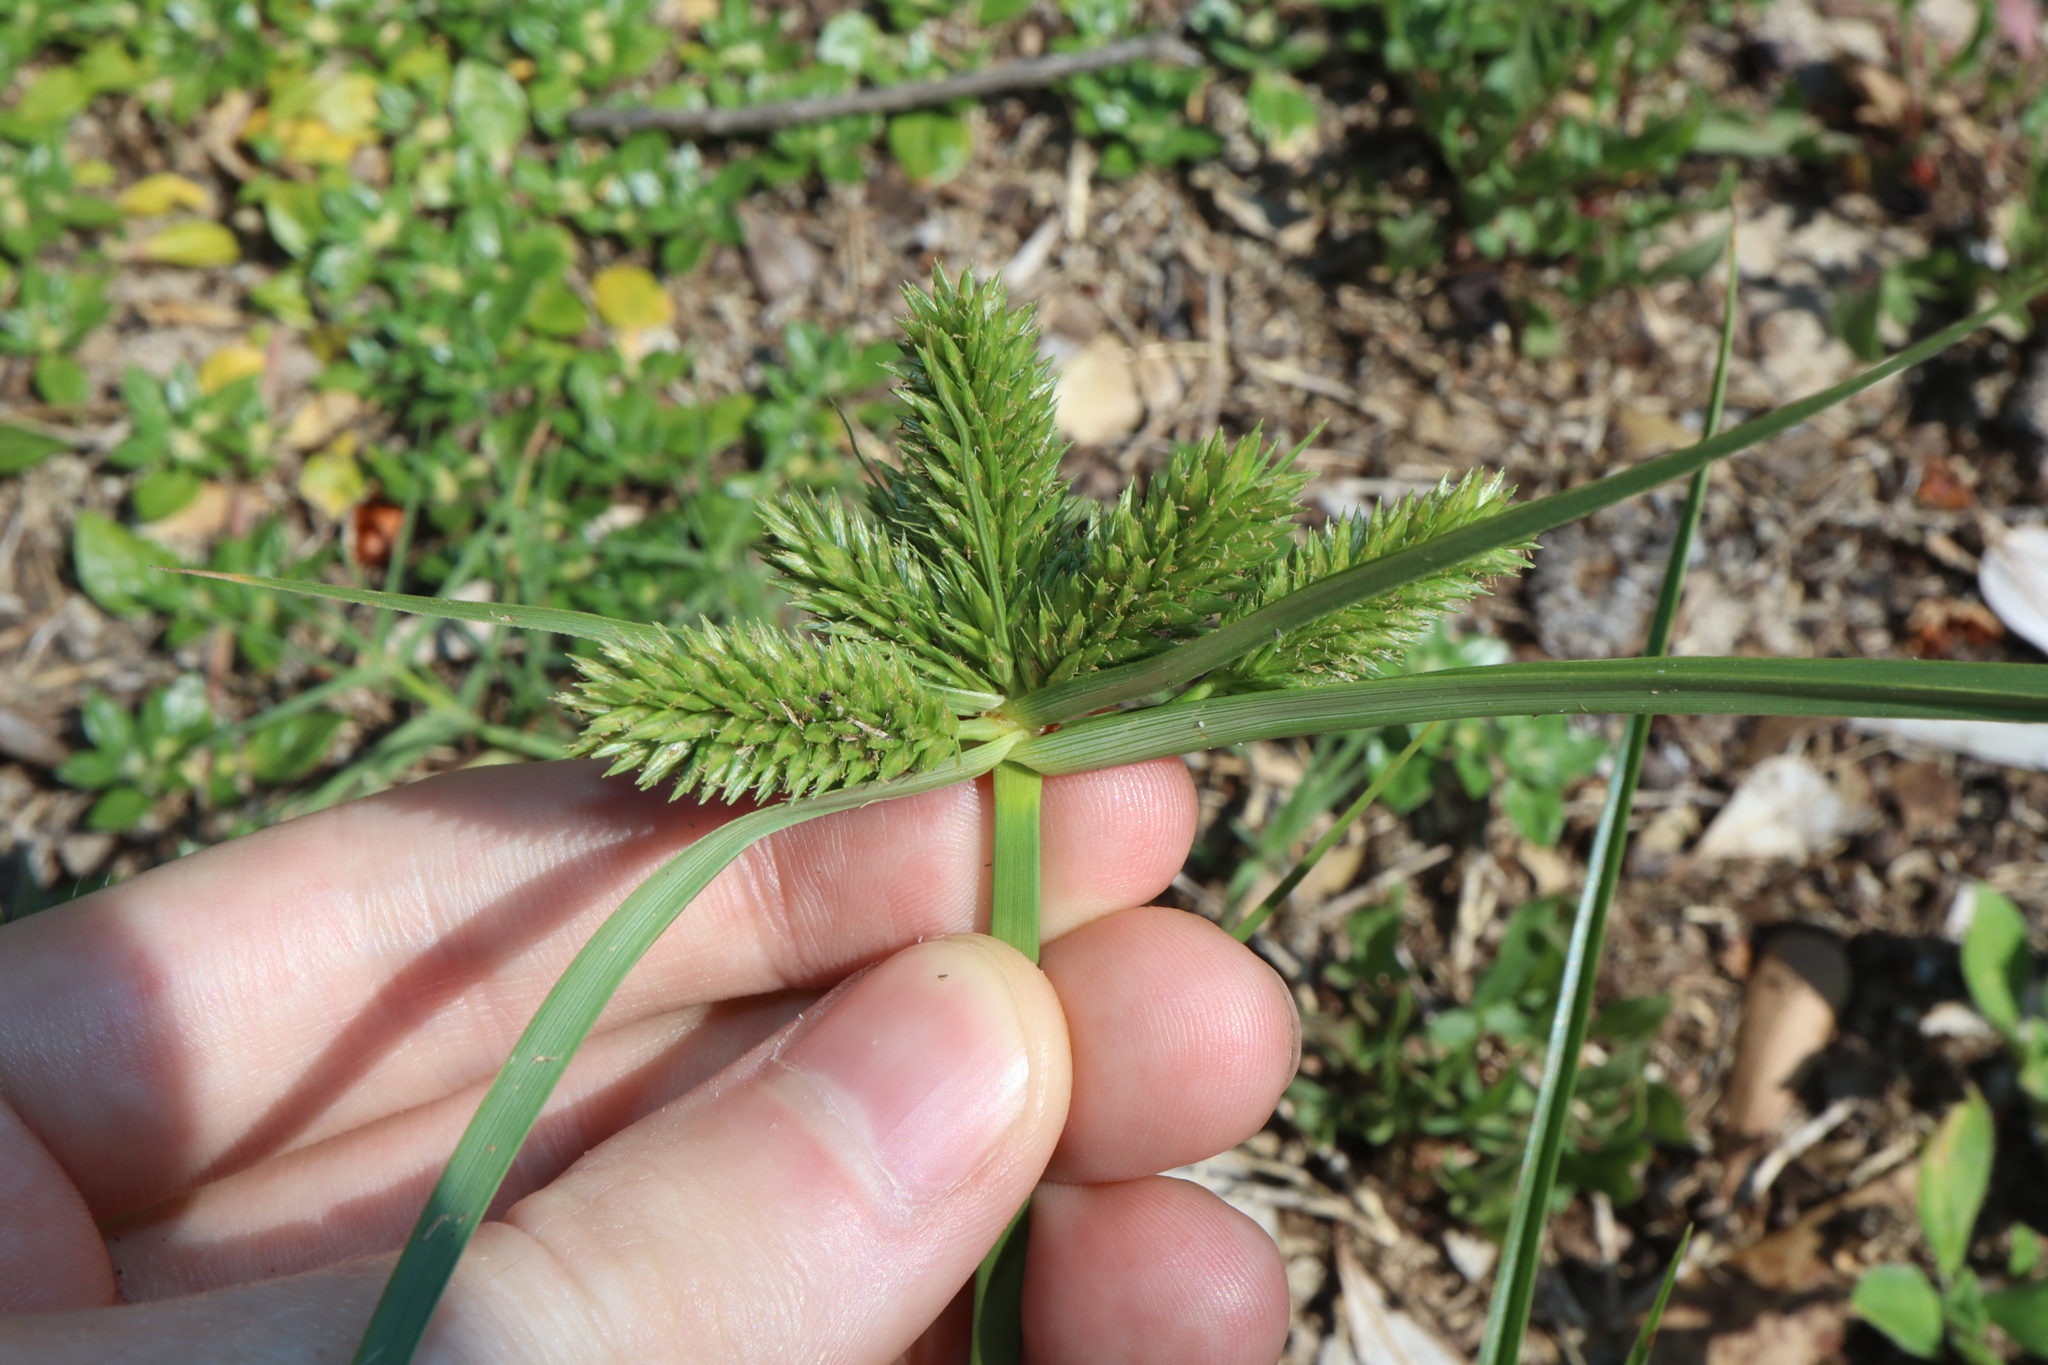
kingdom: Plantae
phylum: Tracheophyta
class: Liliopsida
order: Poales
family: Cyperaceae
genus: Cyperus
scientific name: Cyperus aggregatus
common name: Inflatedscale flatsedge
